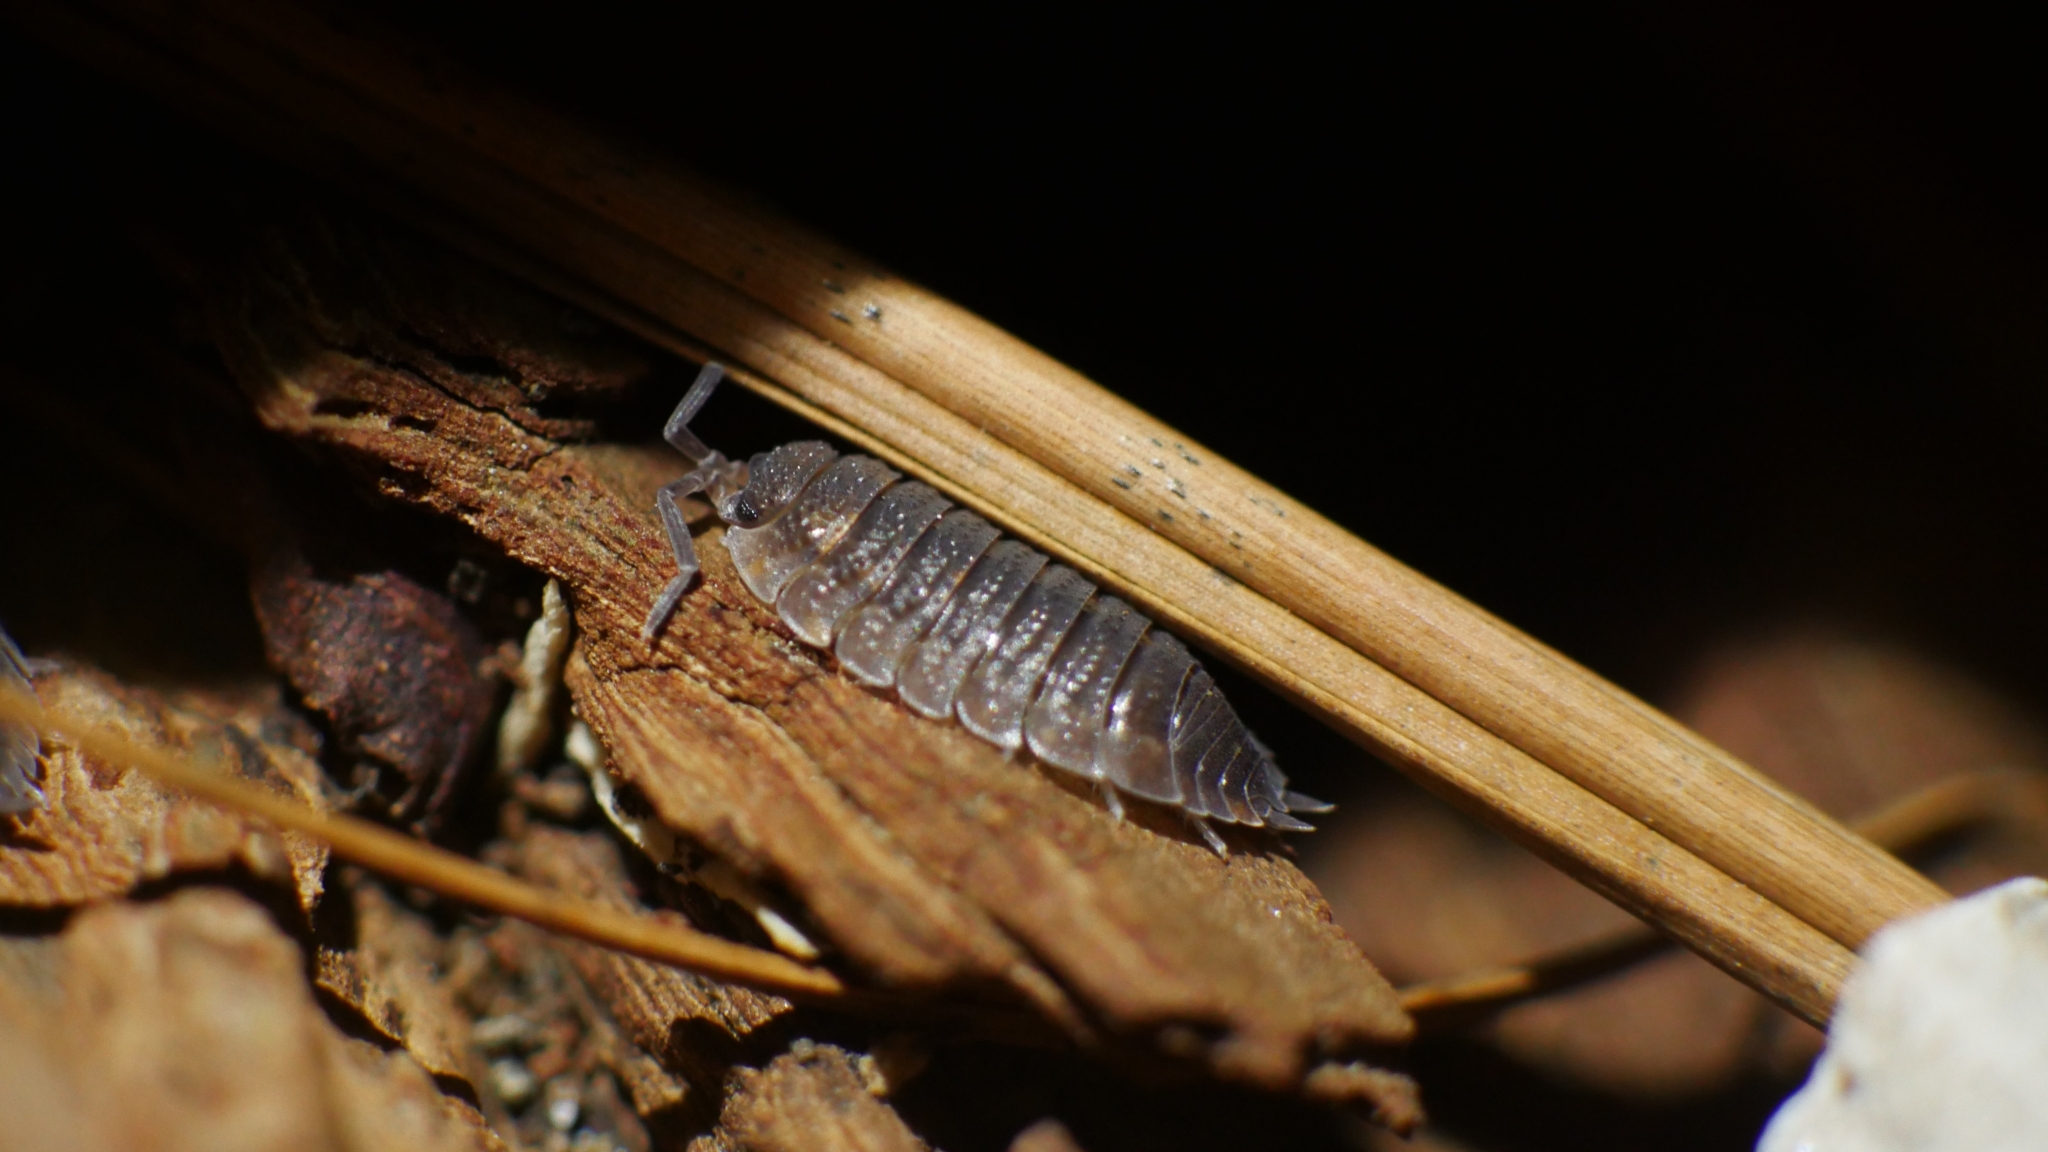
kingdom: Animalia
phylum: Arthropoda
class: Malacostraca
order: Isopoda
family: Porcellionidae
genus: Porcellio
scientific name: Porcellio scaber
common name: Common rough woodlouse
